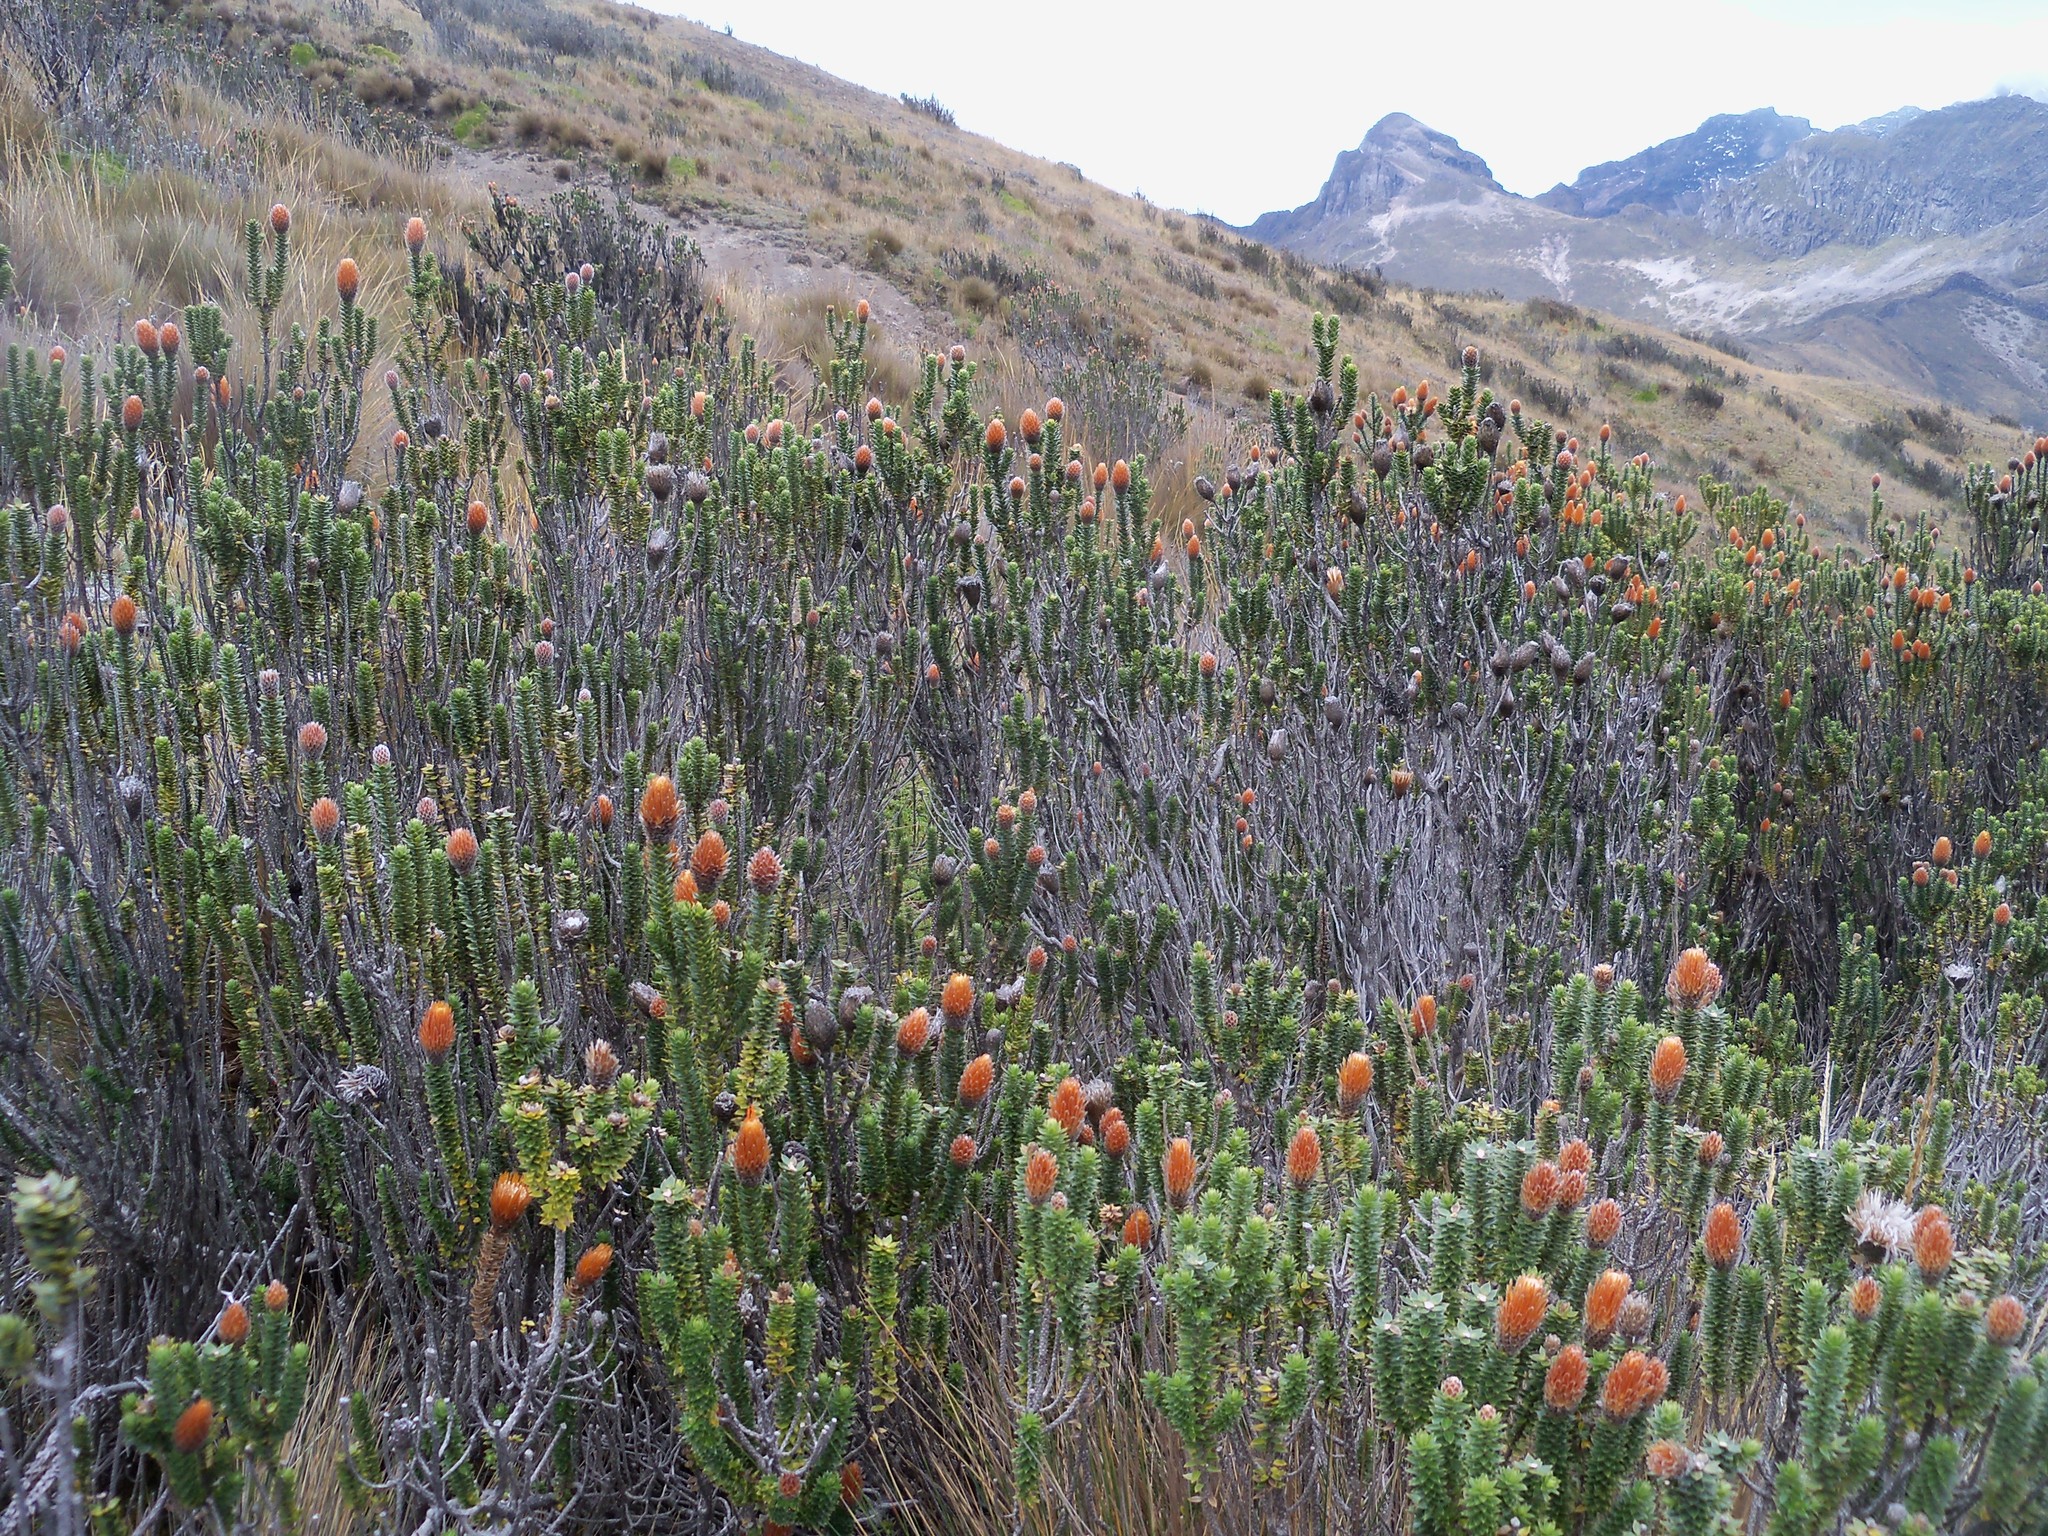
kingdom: Plantae
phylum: Tracheophyta
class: Magnoliopsida
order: Asterales
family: Asteraceae
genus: Chuquiraga
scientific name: Chuquiraga jussieui
